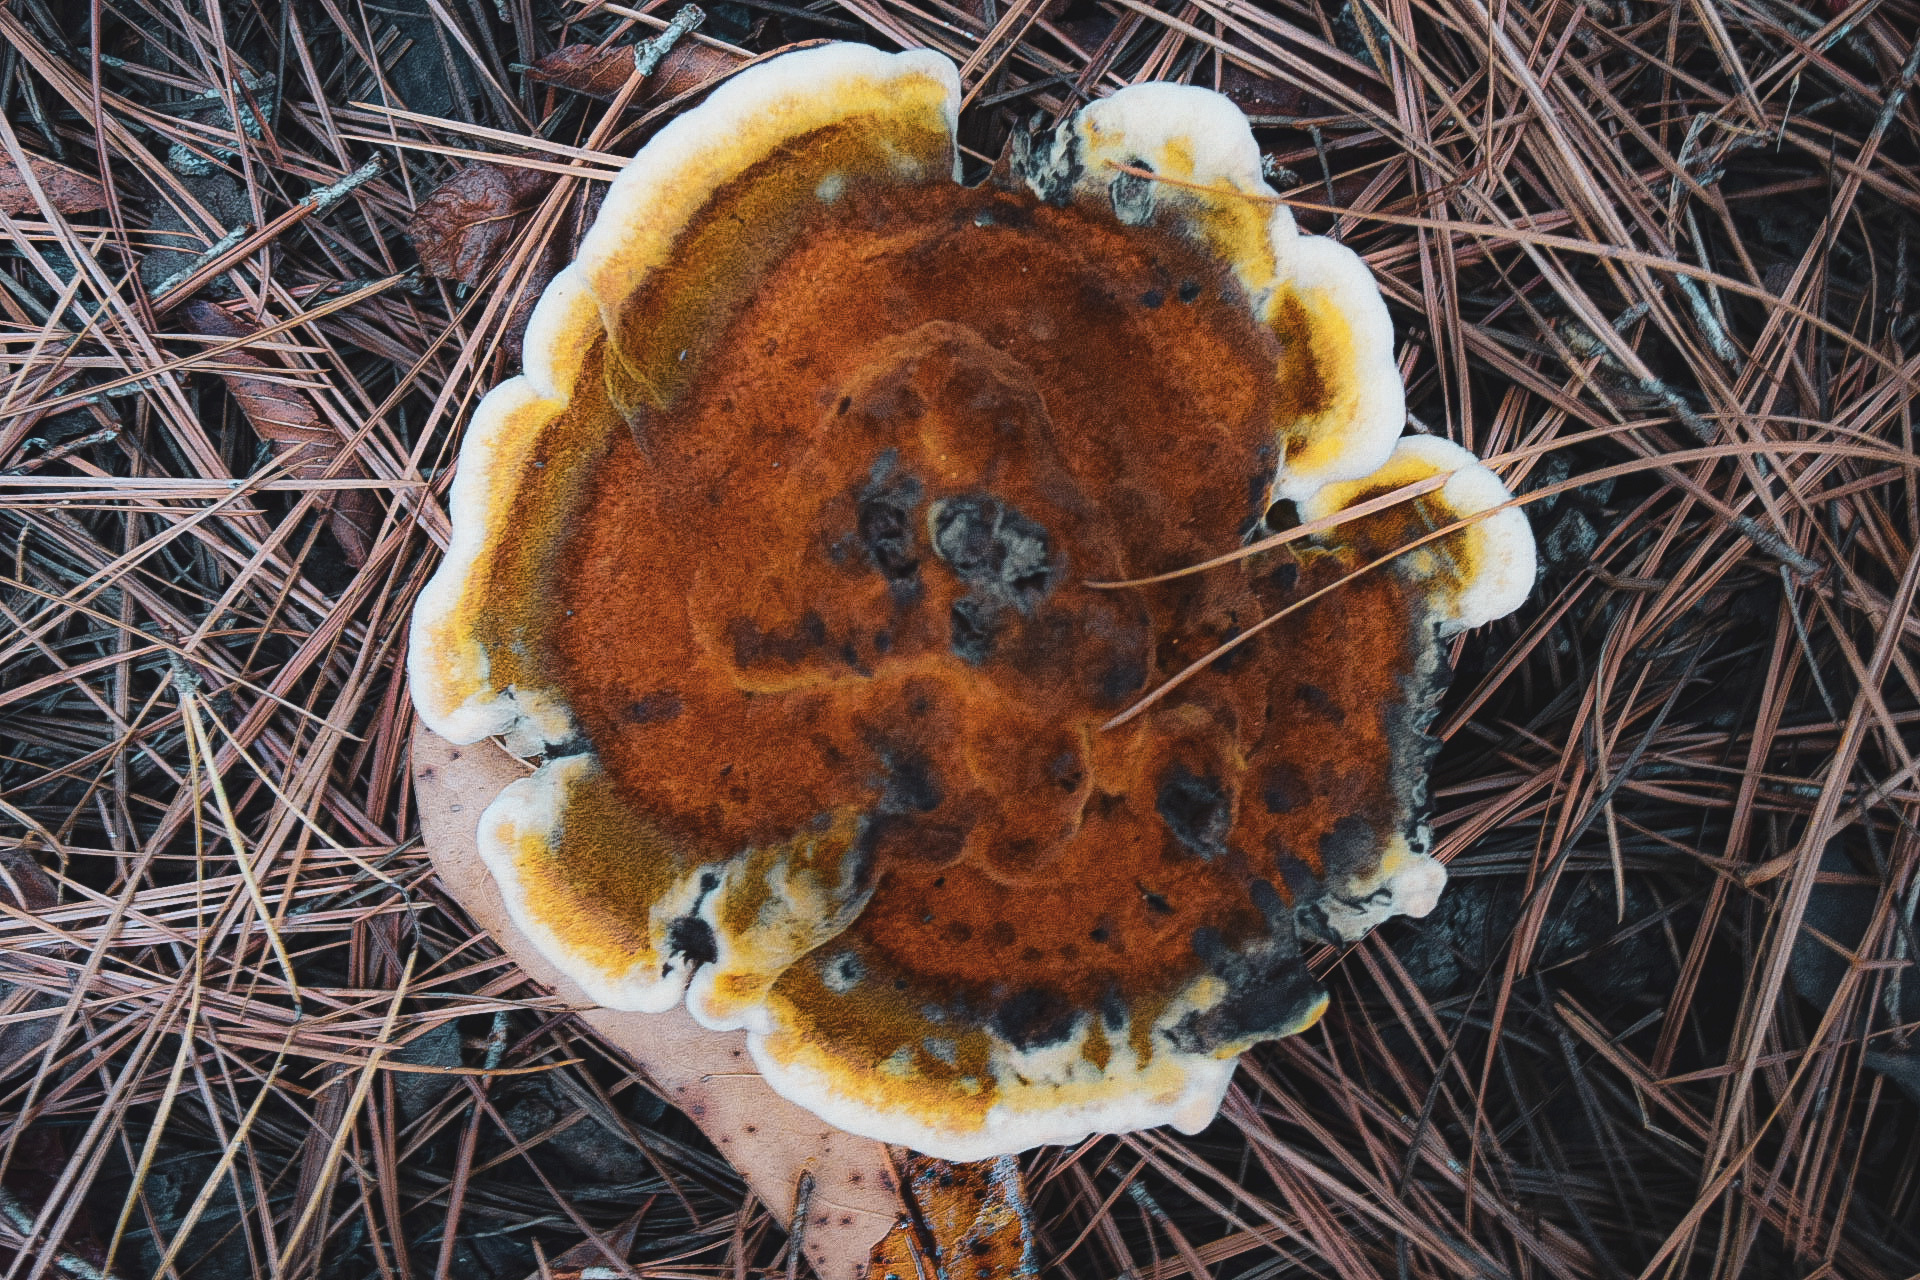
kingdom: Fungi
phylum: Basidiomycota
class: Agaricomycetes
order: Polyporales
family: Laetiporaceae
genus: Phaeolus
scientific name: Phaeolus schweinitzii
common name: Dyer's mazegill
